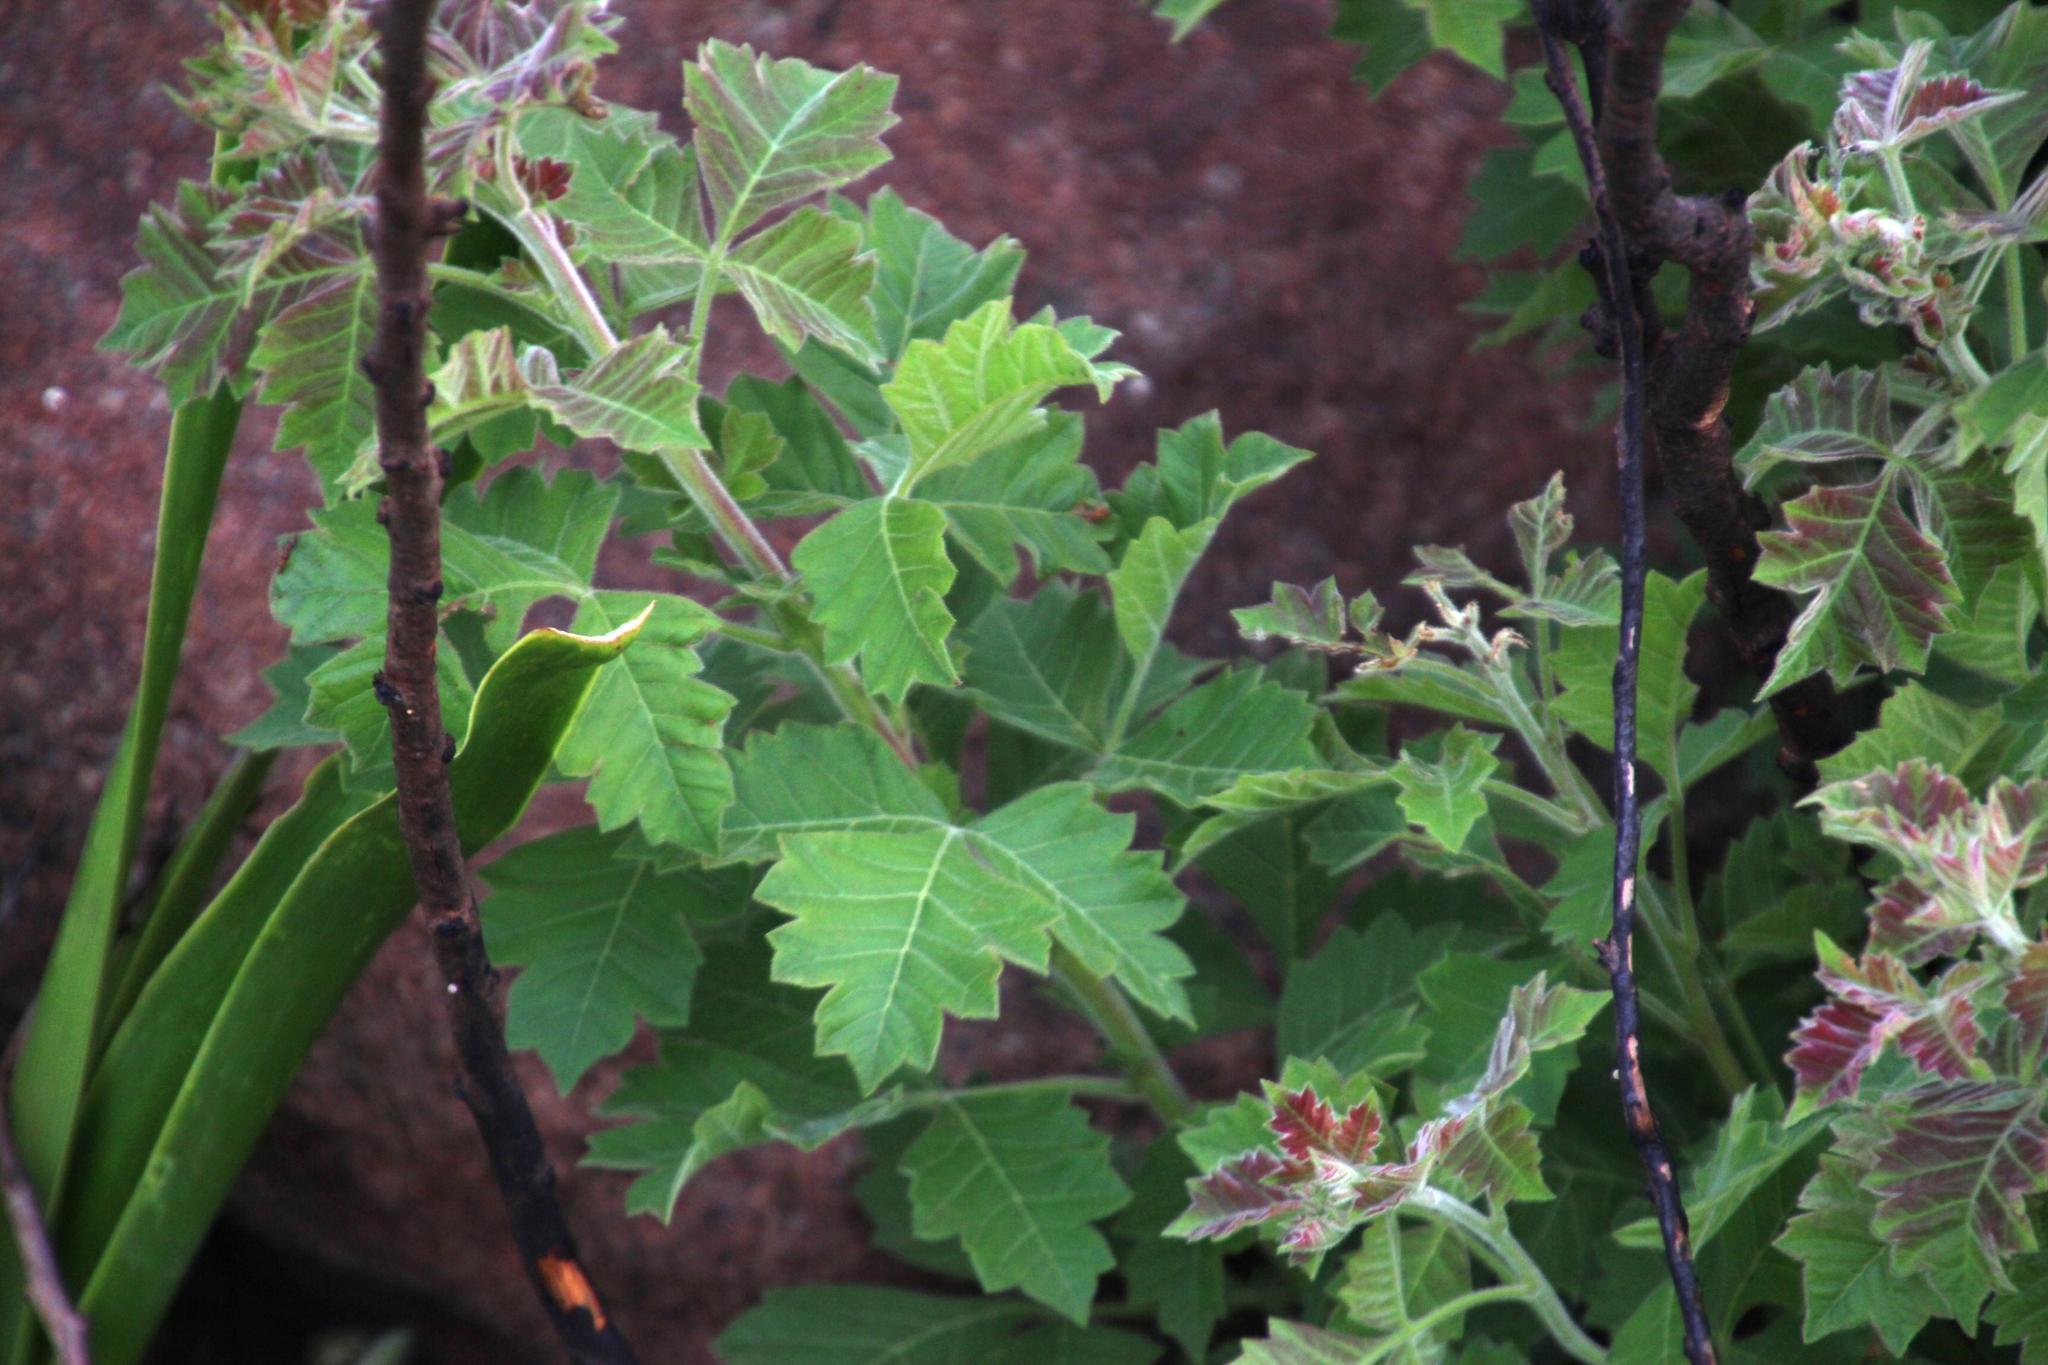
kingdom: Plantae
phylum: Tracheophyta
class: Magnoliopsida
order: Sapindales
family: Anacardiaceae
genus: Searsia
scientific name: Searsia dentata
